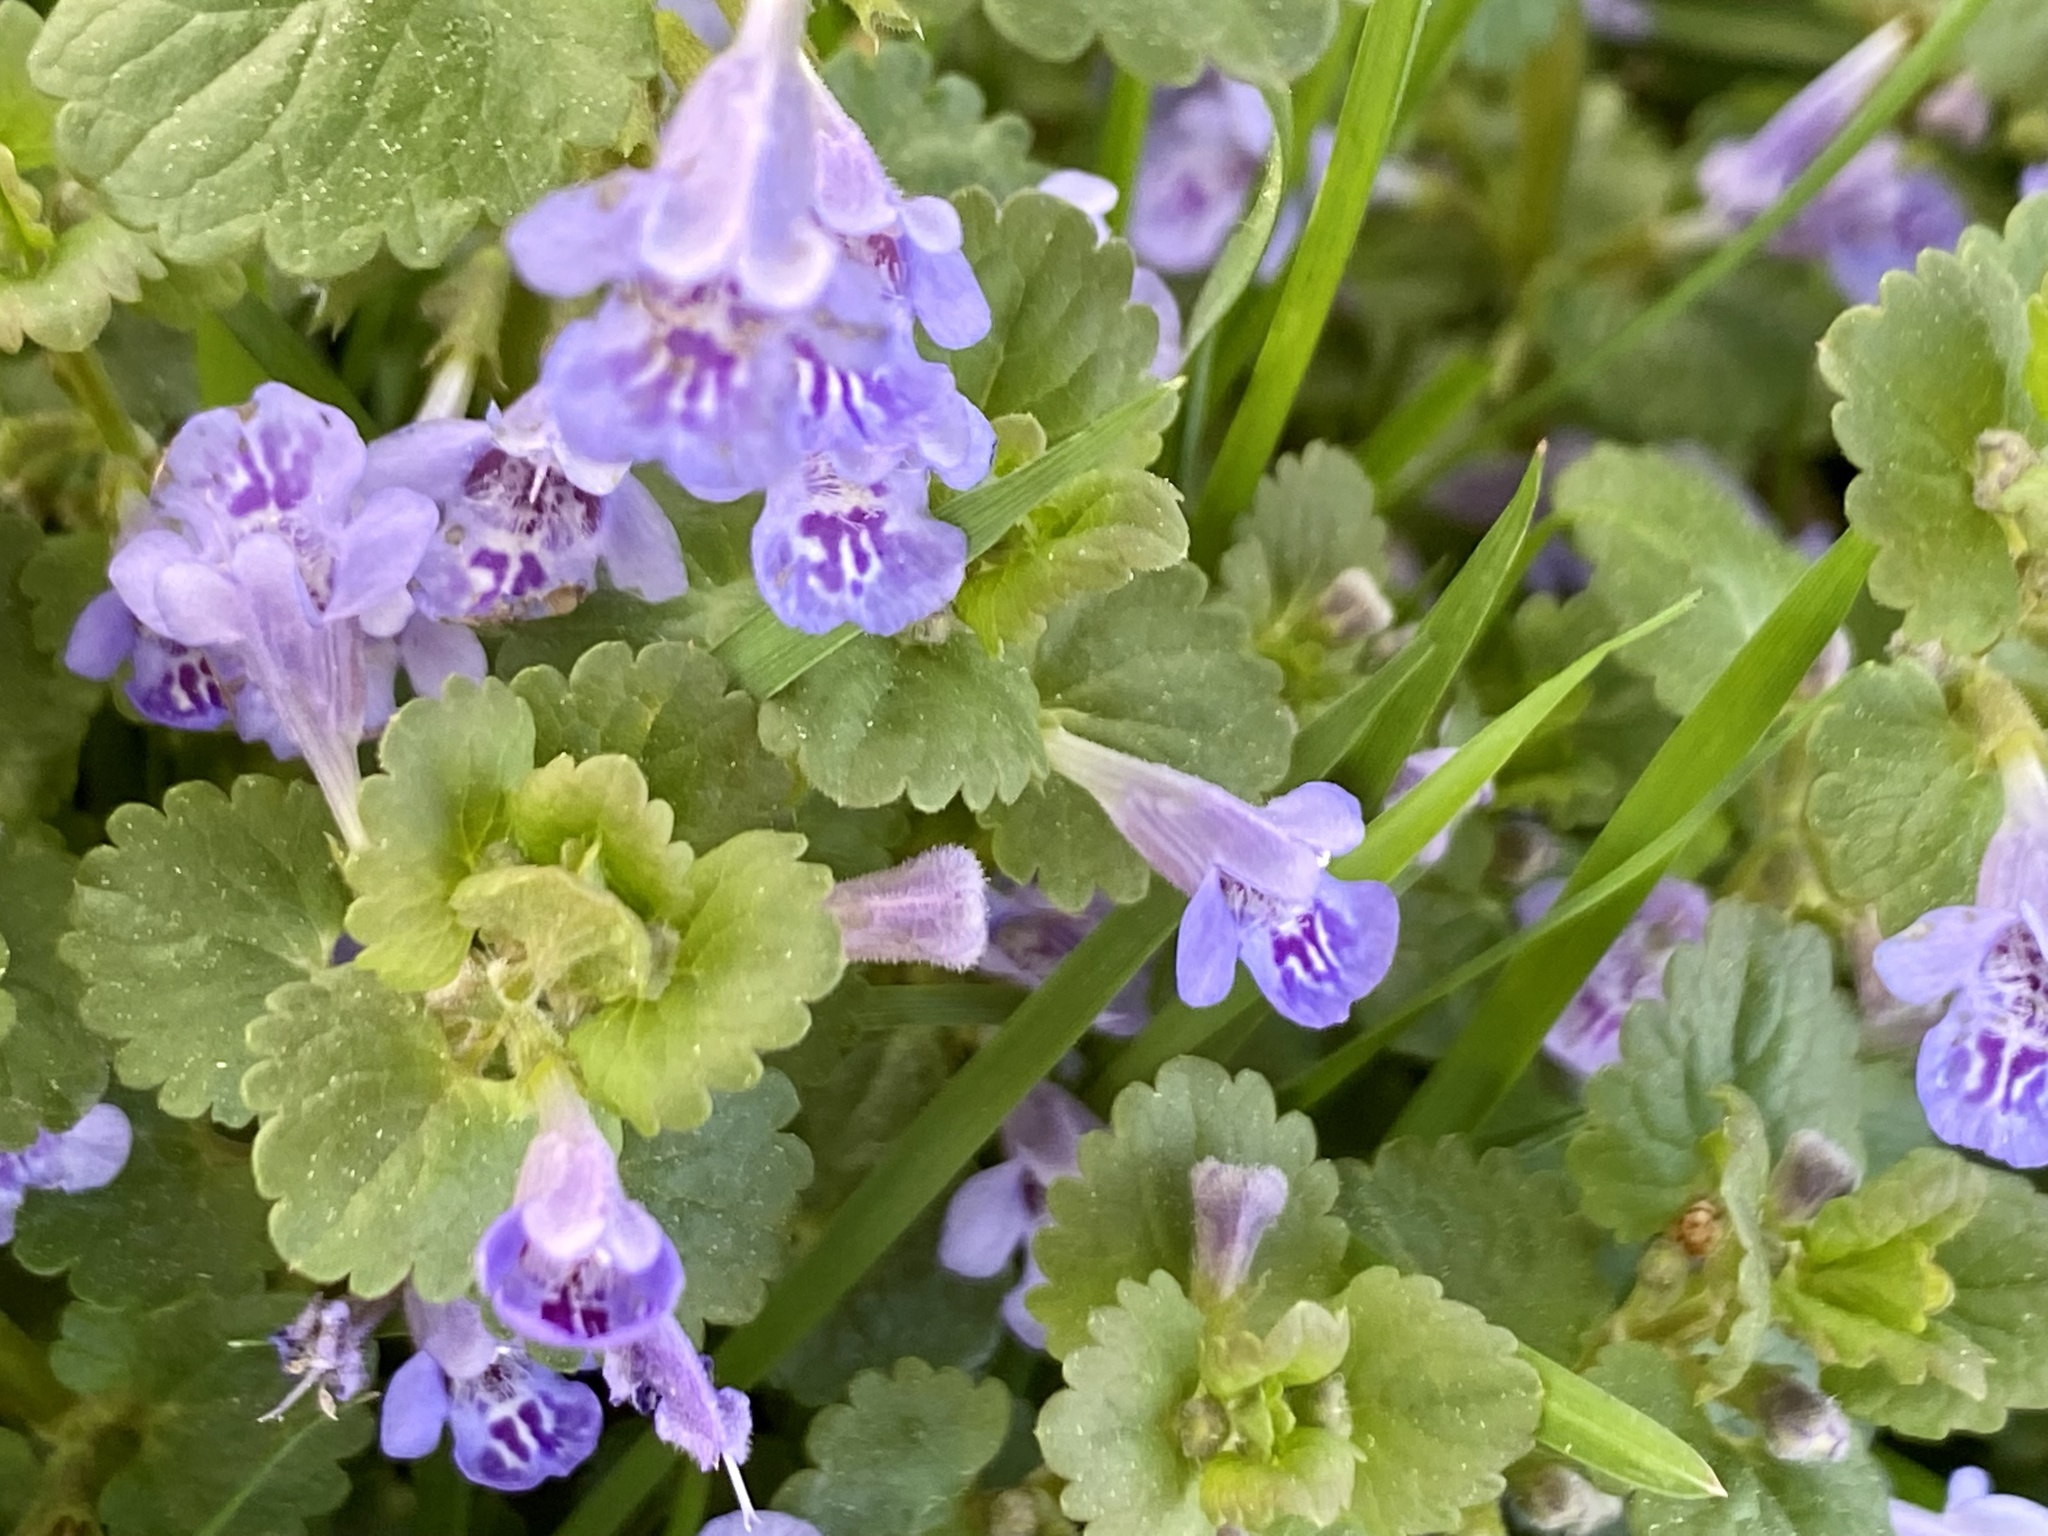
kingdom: Plantae
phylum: Tracheophyta
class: Magnoliopsida
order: Lamiales
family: Lamiaceae
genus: Glechoma
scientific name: Glechoma hederacea
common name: Ground ivy
